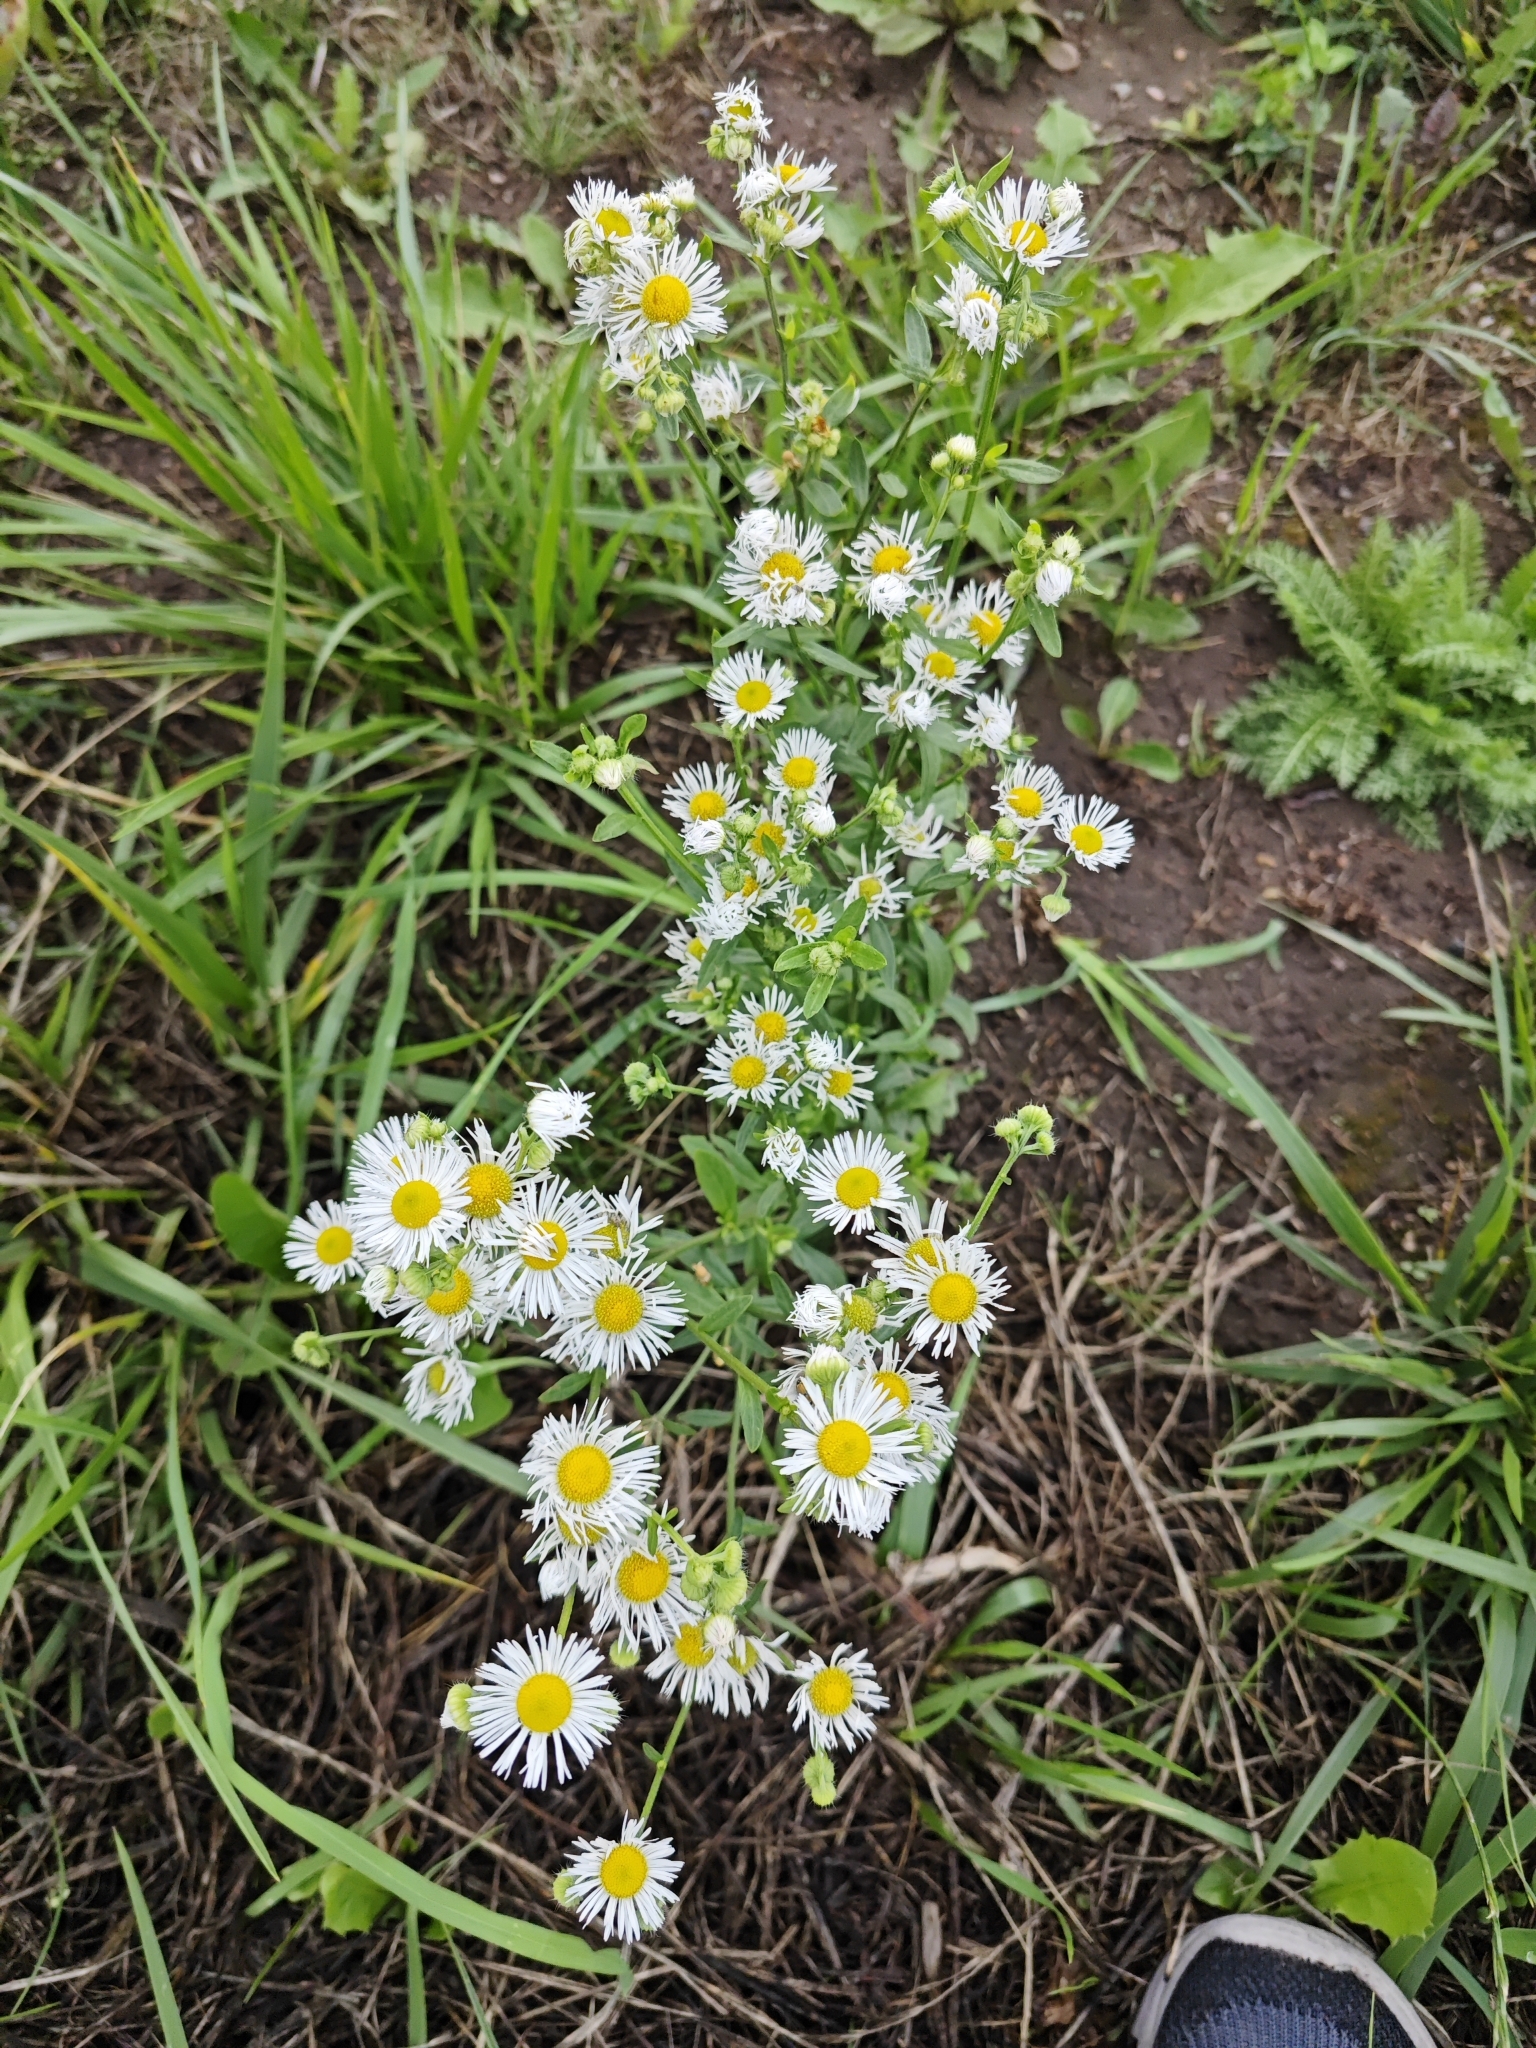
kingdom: Plantae
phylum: Tracheophyta
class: Magnoliopsida
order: Asterales
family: Asteraceae
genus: Erigeron
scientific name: Erigeron annuus
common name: Tall fleabane
